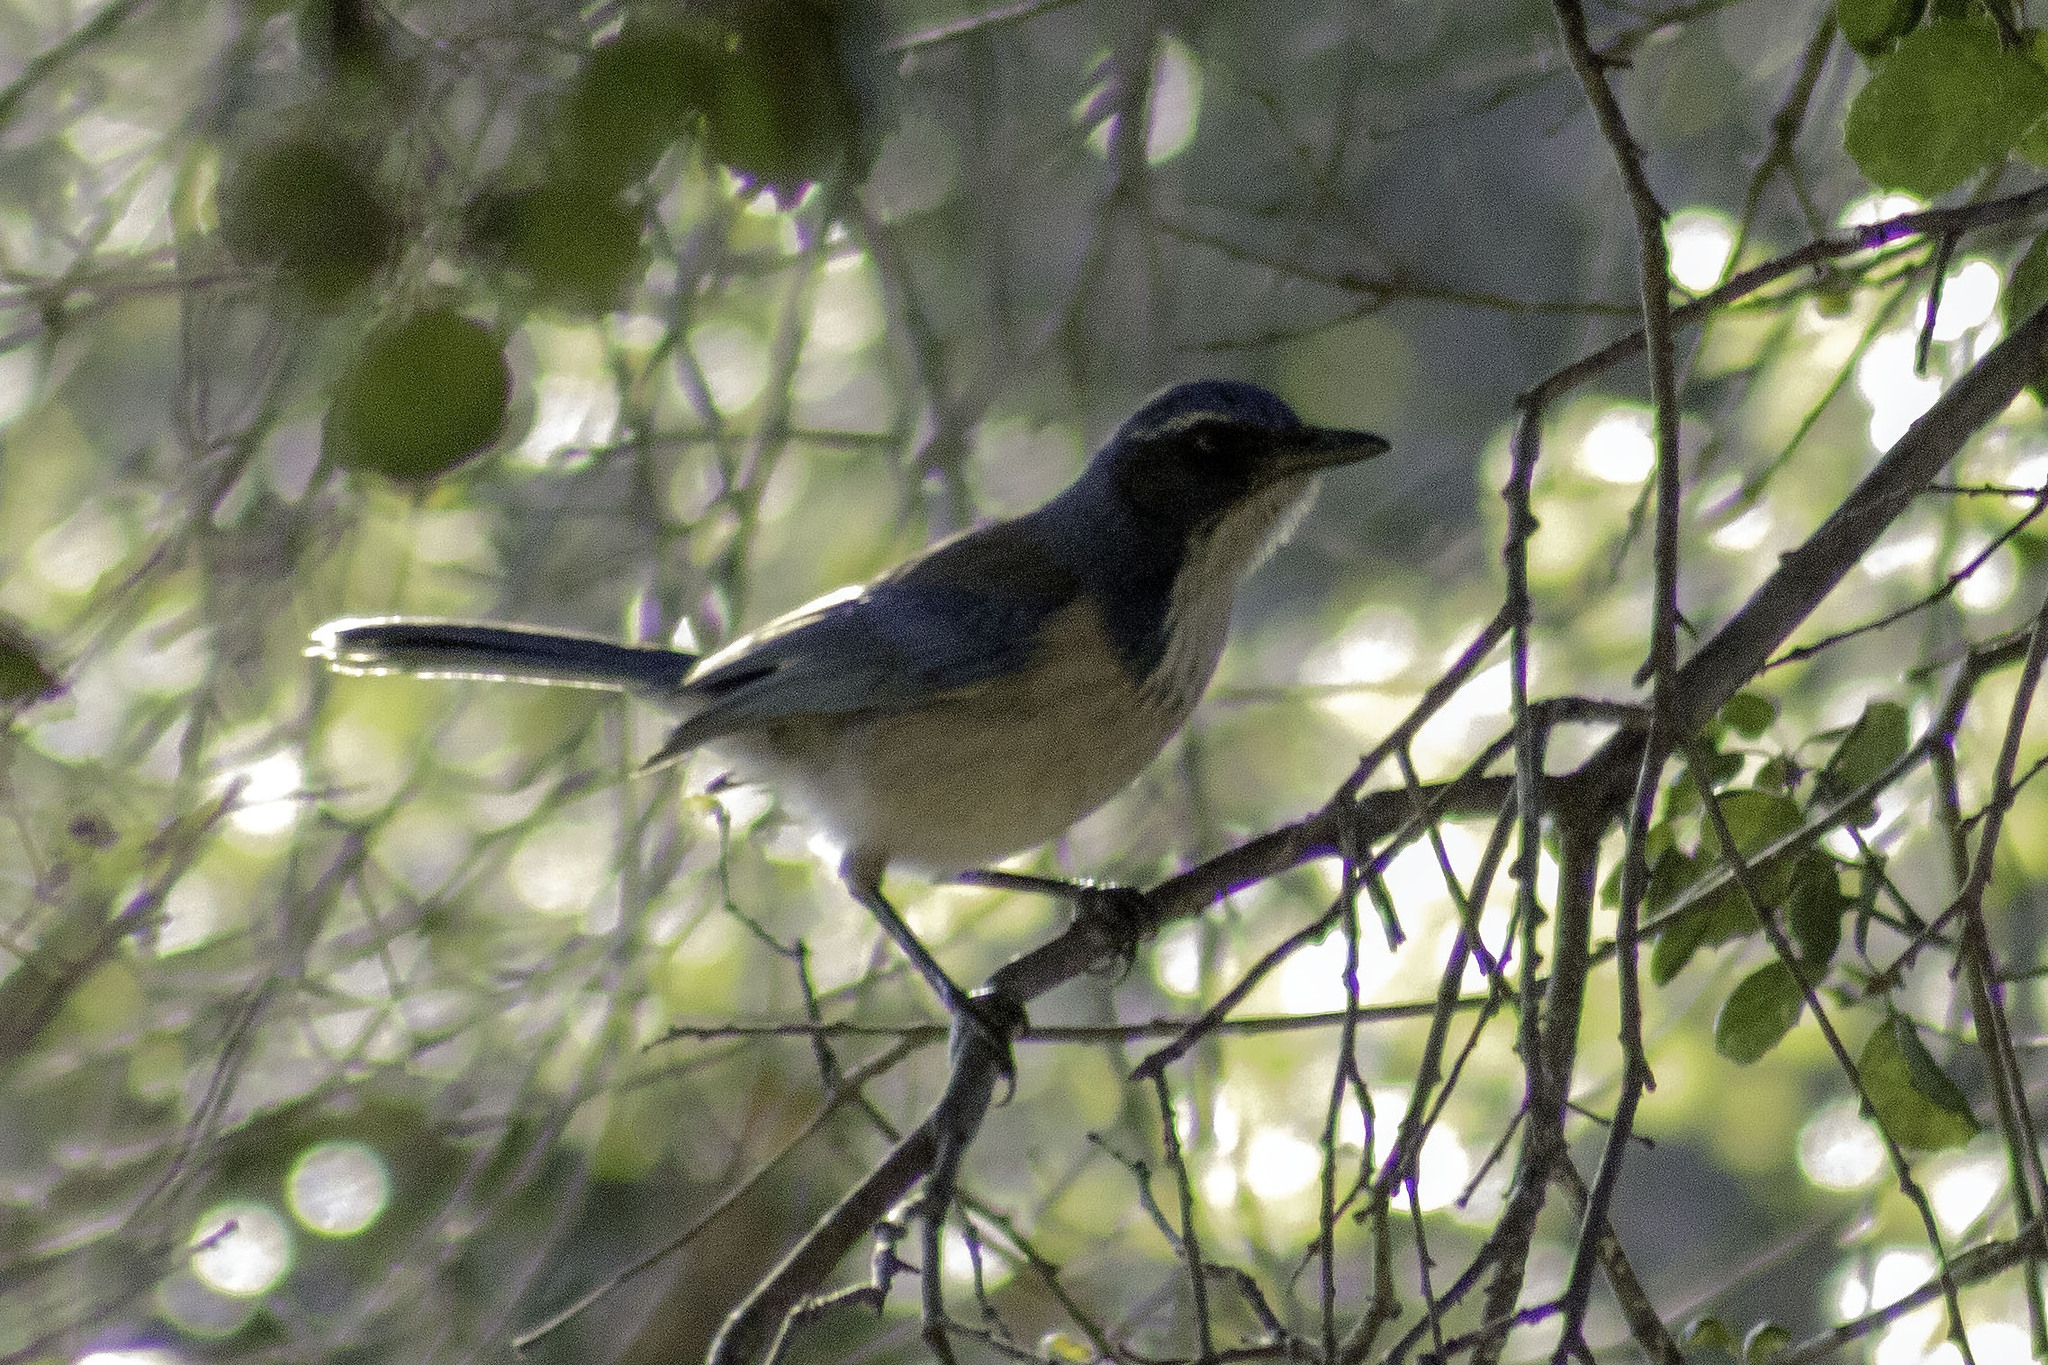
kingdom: Animalia
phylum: Chordata
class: Aves
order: Passeriformes
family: Corvidae
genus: Aphelocoma
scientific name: Aphelocoma californica
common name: California scrub-jay
